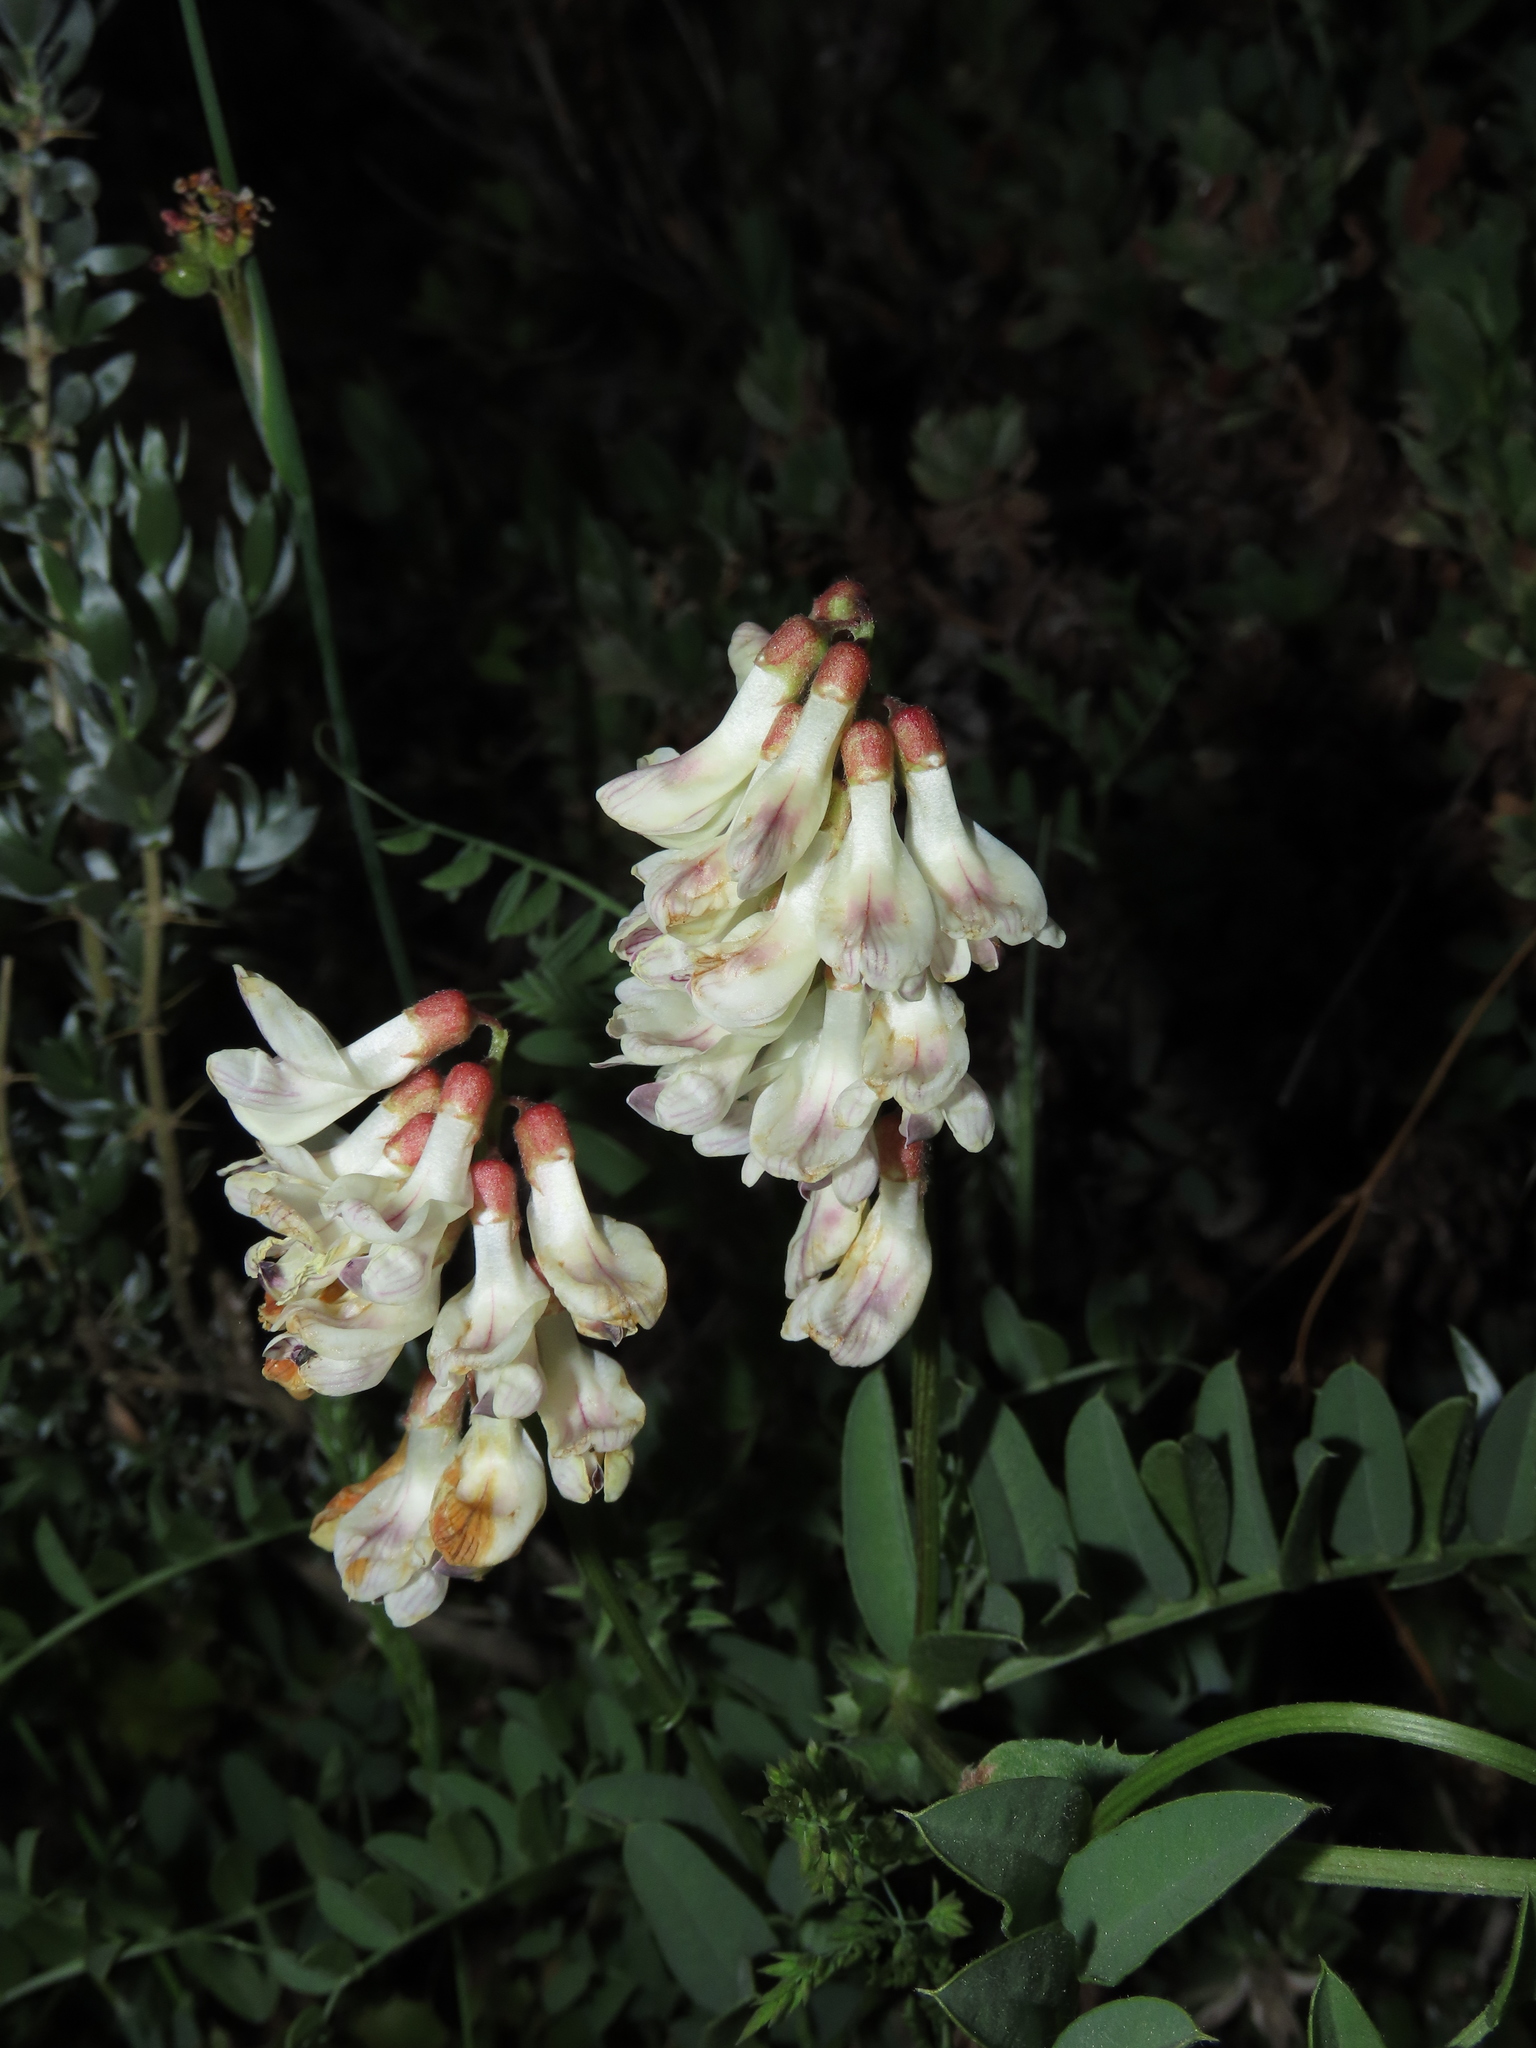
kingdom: Plantae
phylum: Tracheophyta
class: Magnoliopsida
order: Fabales
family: Fabaceae
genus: Vicia
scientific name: Vicia nigricans
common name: Black vetch
